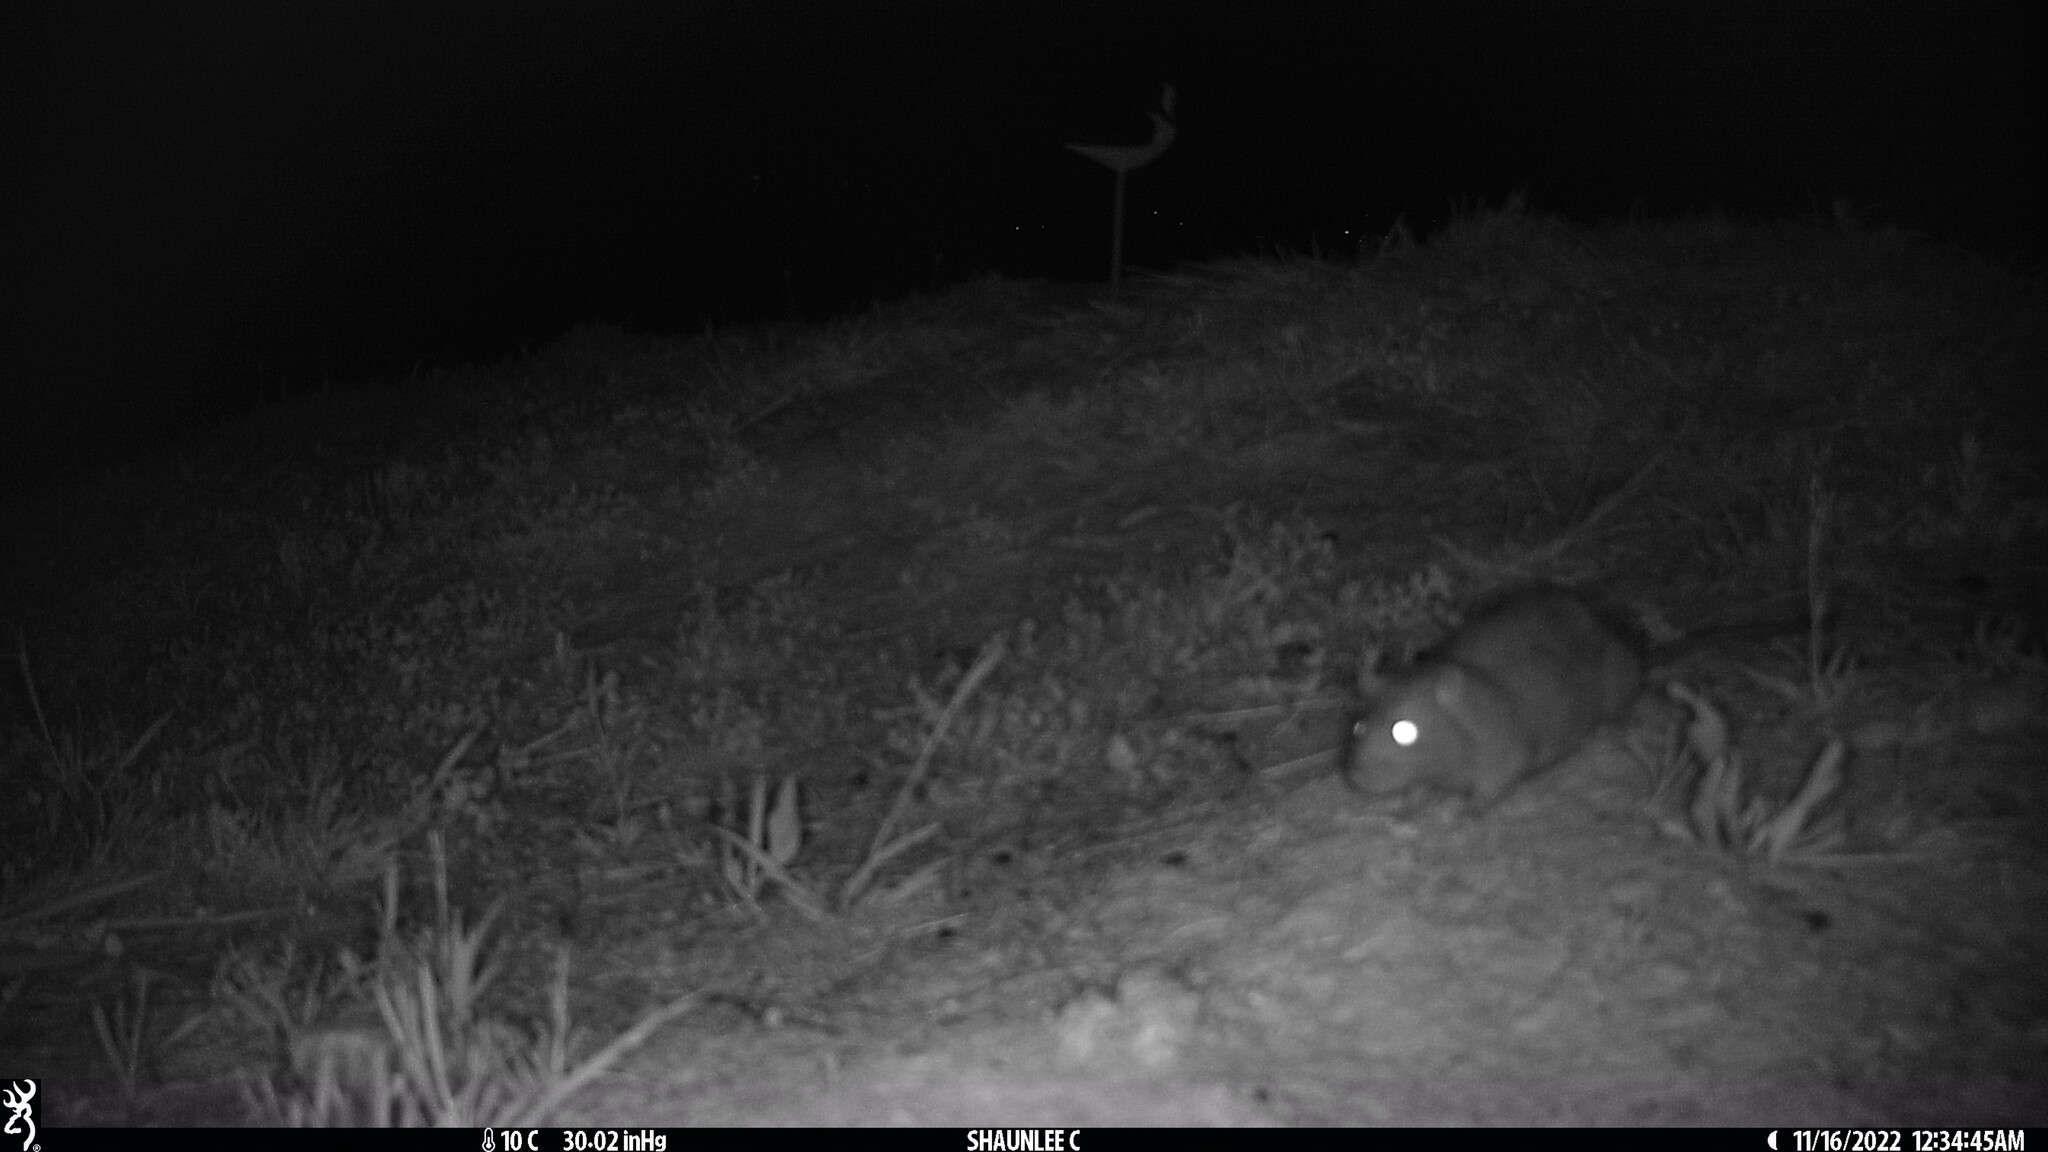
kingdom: Animalia
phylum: Chordata
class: Mammalia
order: Rodentia
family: Muridae
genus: Rattus
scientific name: Rattus norvegicus
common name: Brown rat
